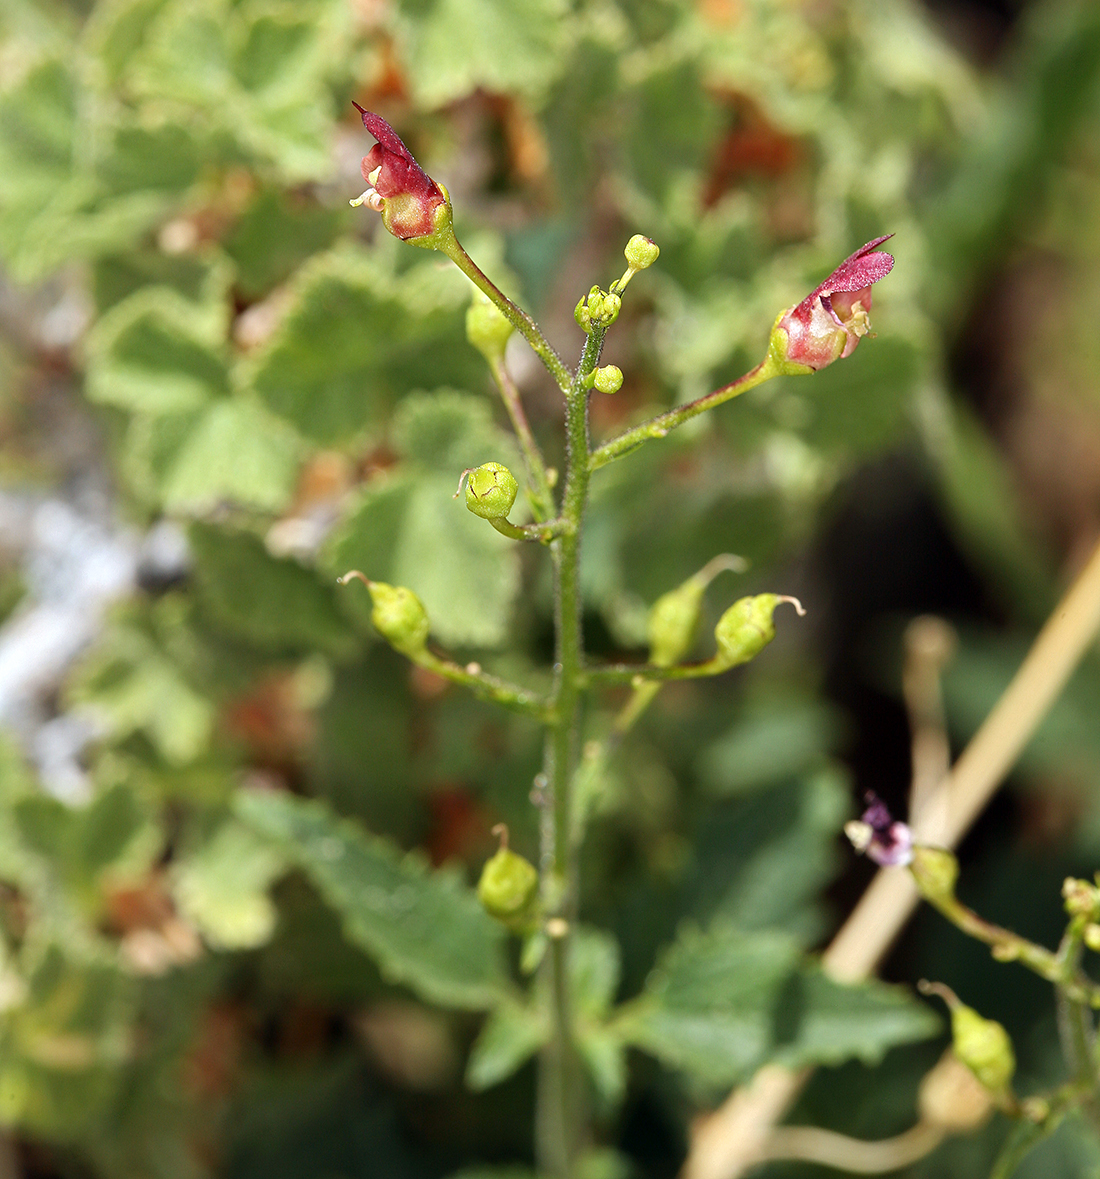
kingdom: Plantae
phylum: Tracheophyta
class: Magnoliopsida
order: Lamiales
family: Scrophulariaceae
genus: Scrophularia
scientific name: Scrophularia desertorum
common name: Desert figwort
